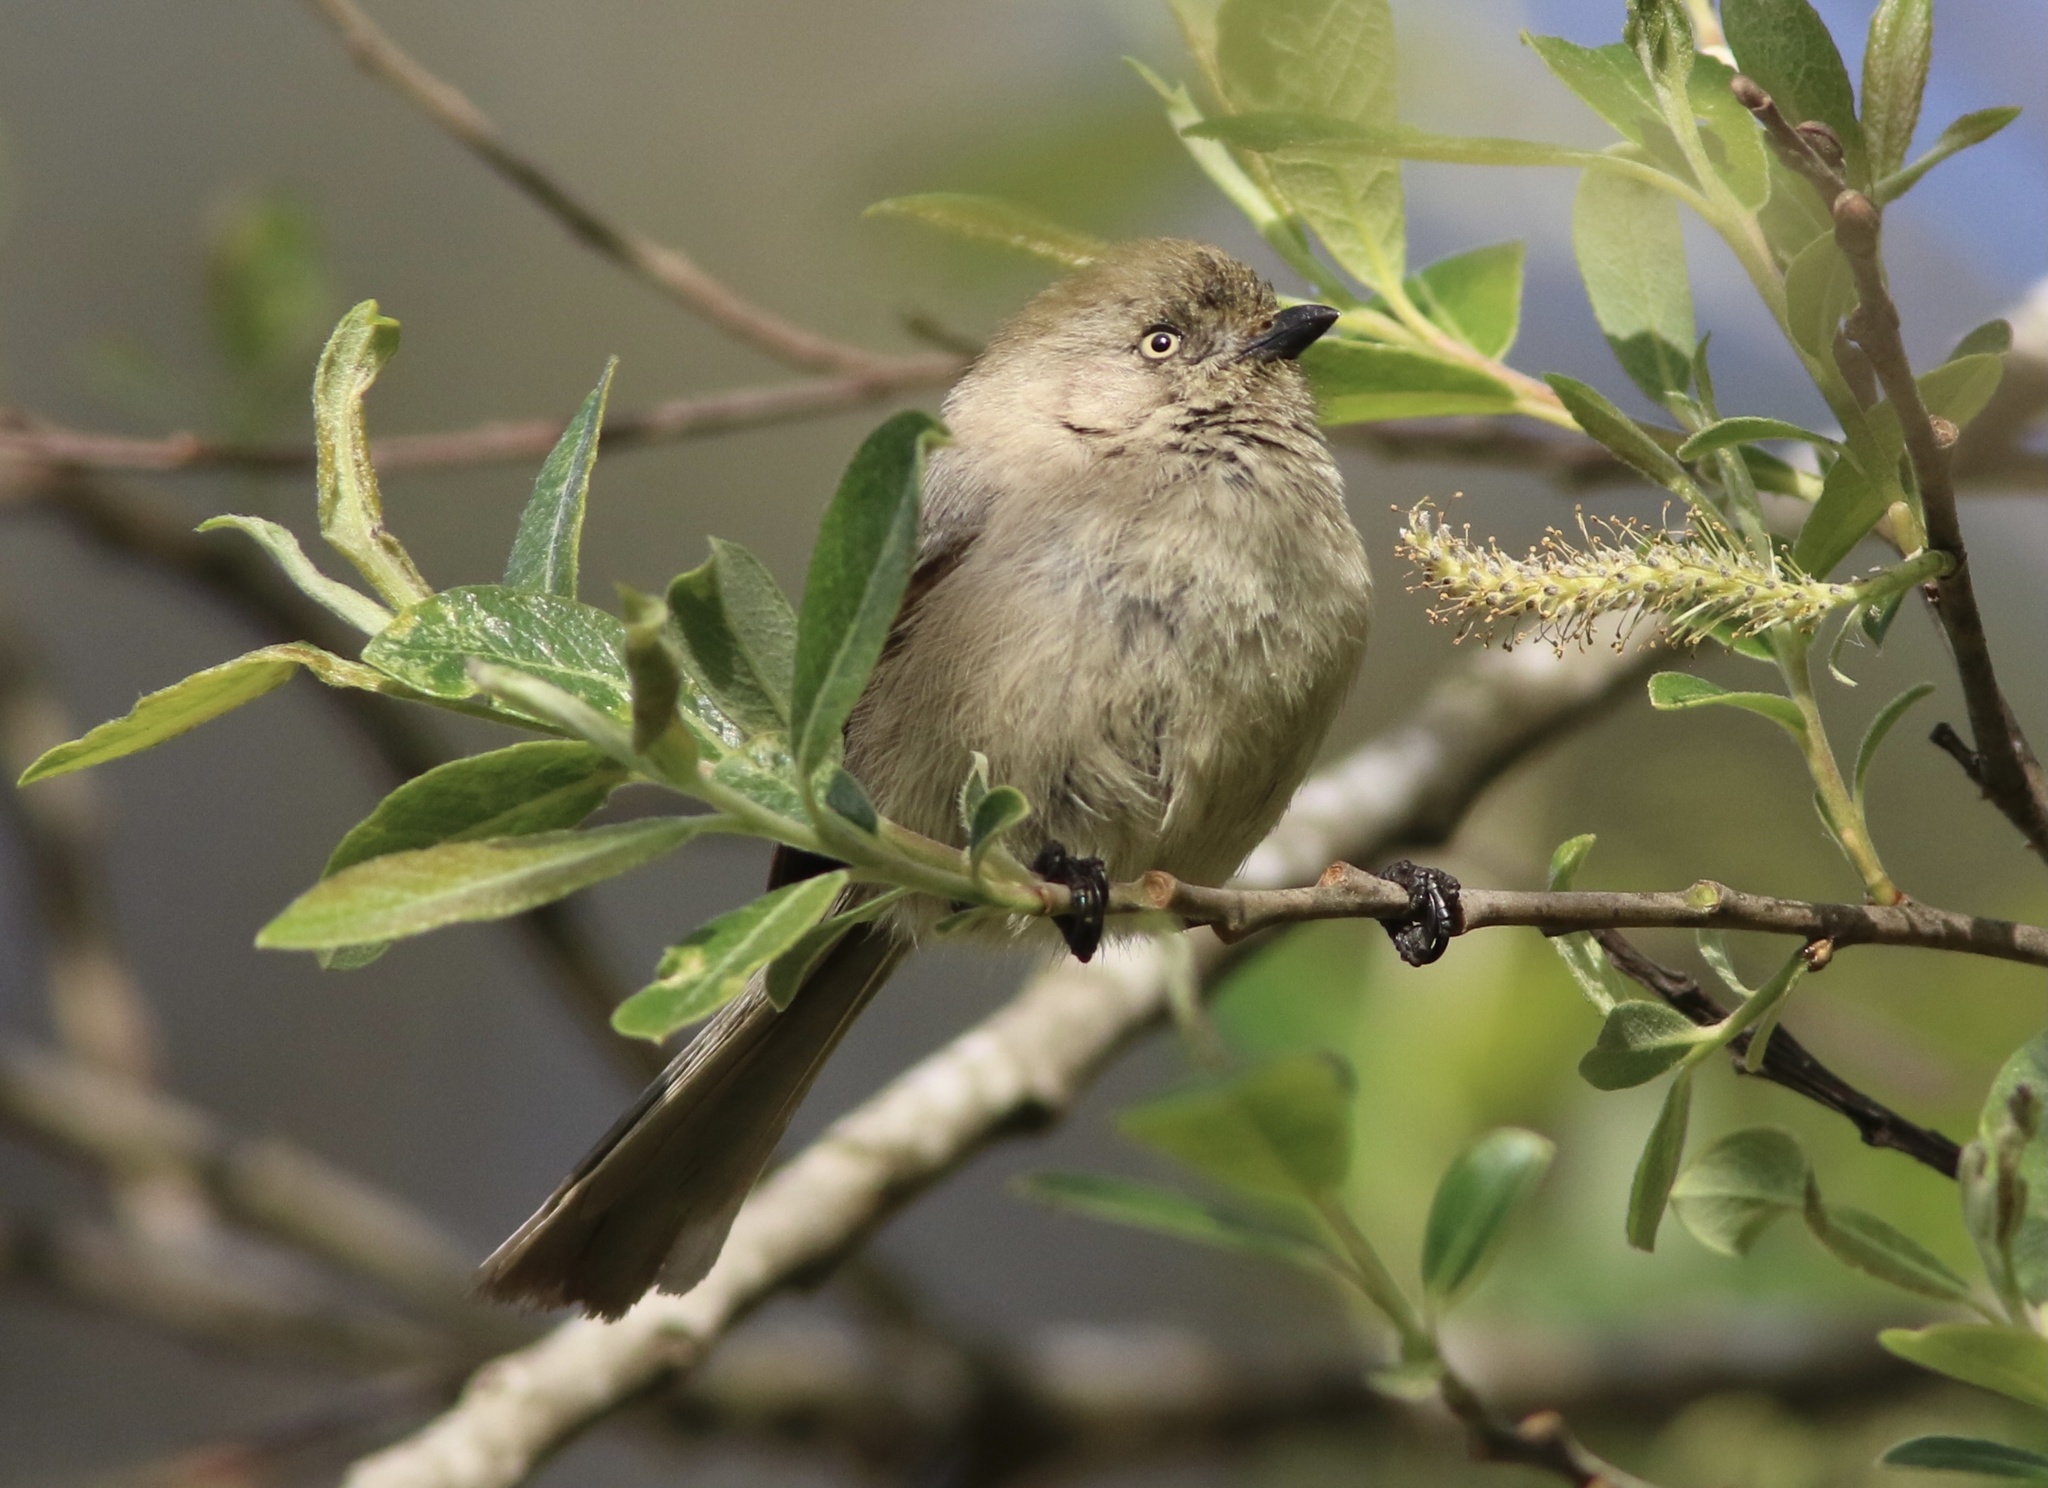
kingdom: Animalia
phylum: Chordata
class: Aves
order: Passeriformes
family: Aegithalidae
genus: Psaltriparus
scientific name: Psaltriparus minimus
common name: American bushtit
